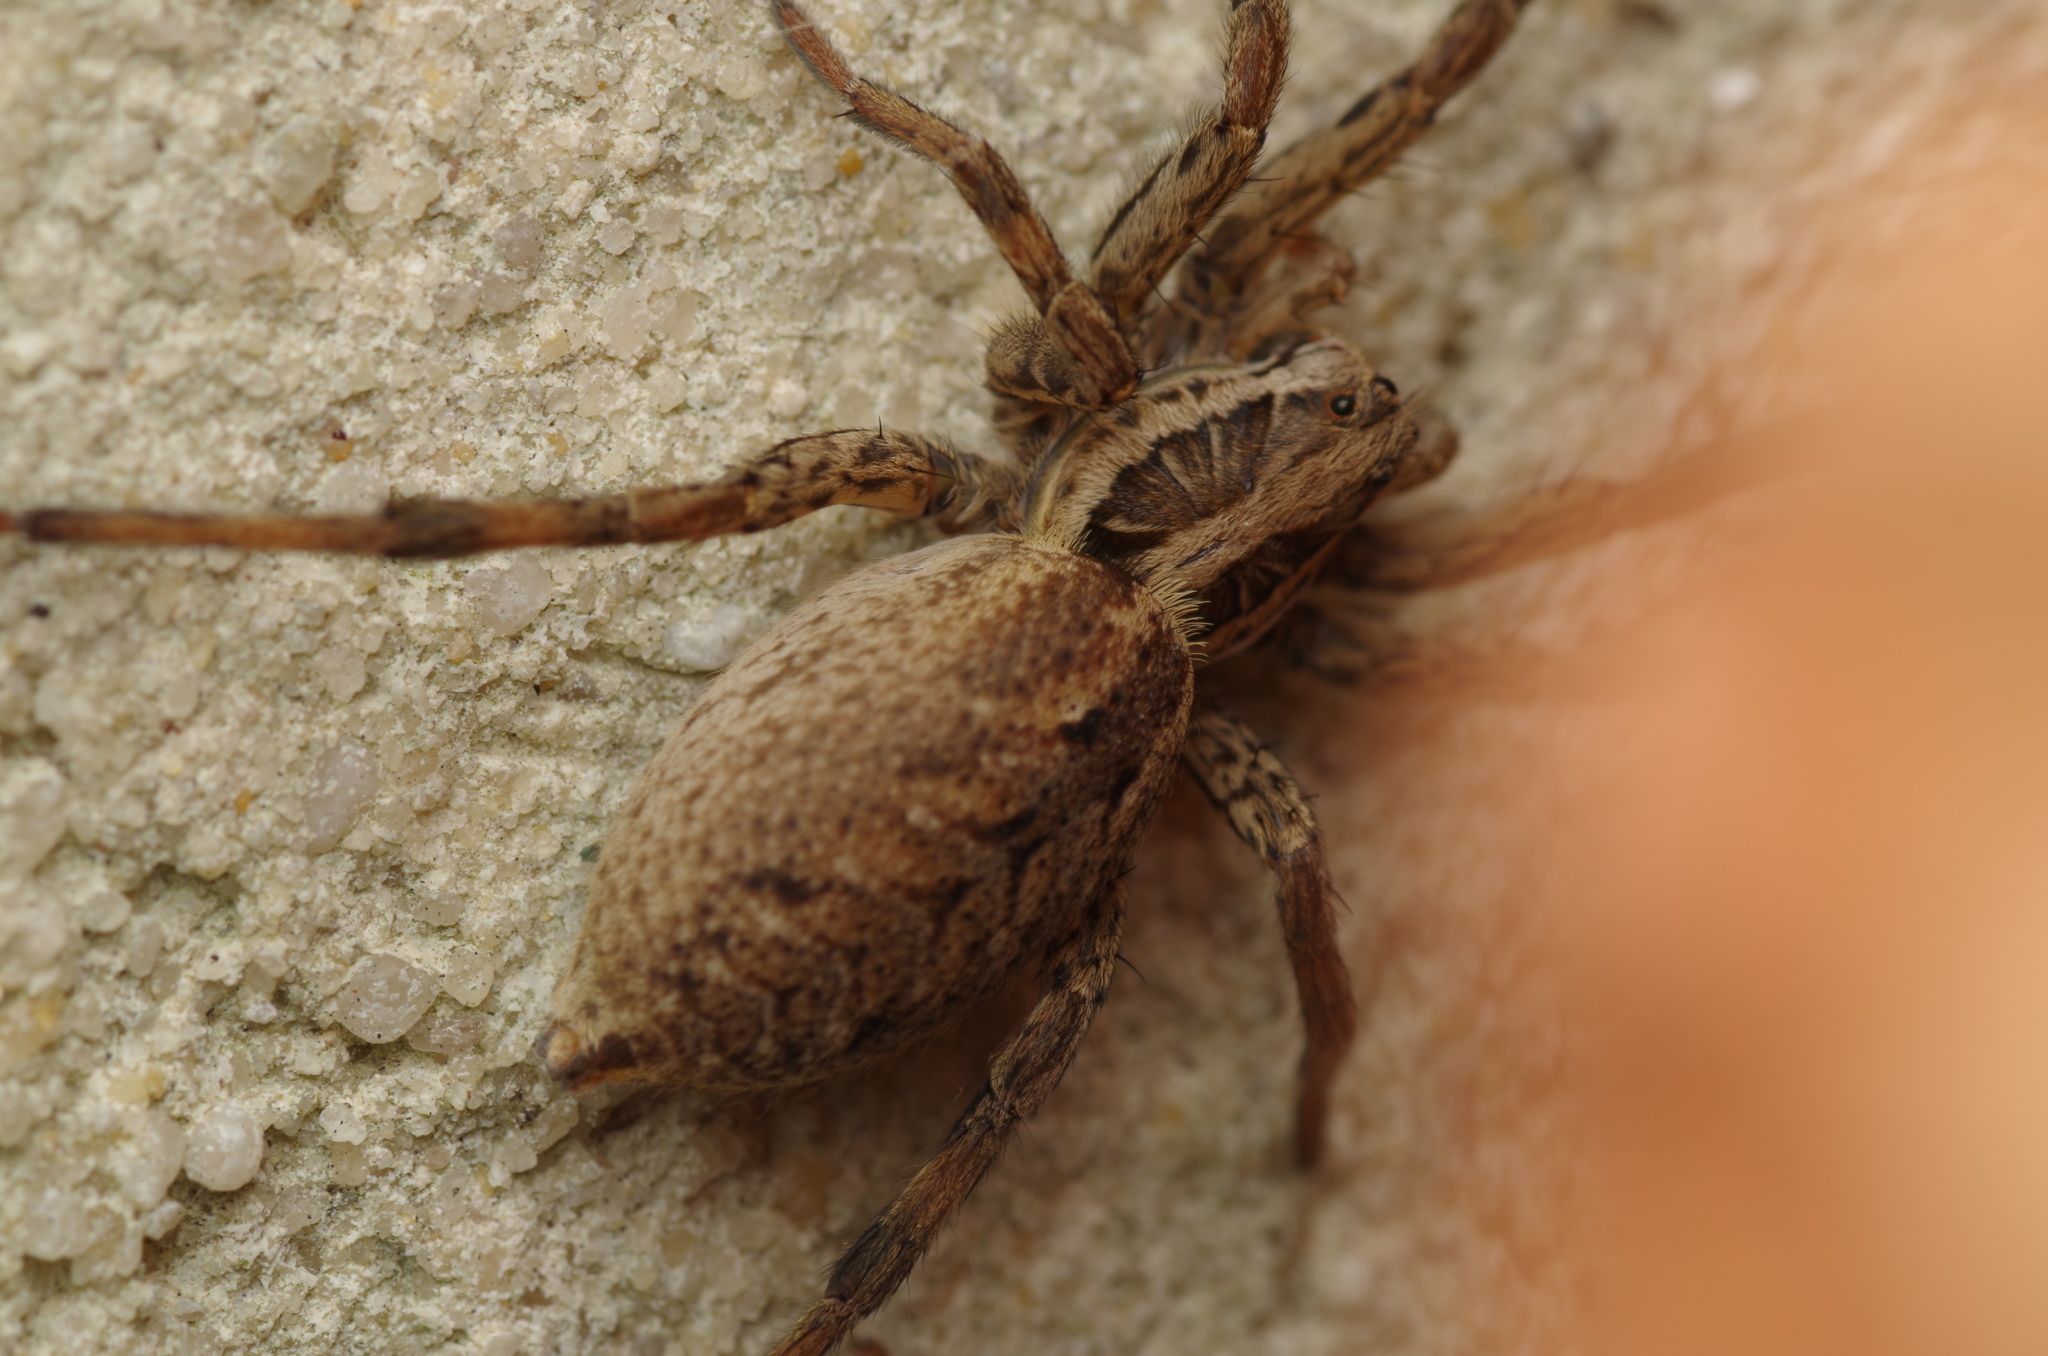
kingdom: Animalia
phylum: Arthropoda
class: Arachnida
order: Araneae
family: Lycosidae
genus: Hogna
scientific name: Hogna radiata
